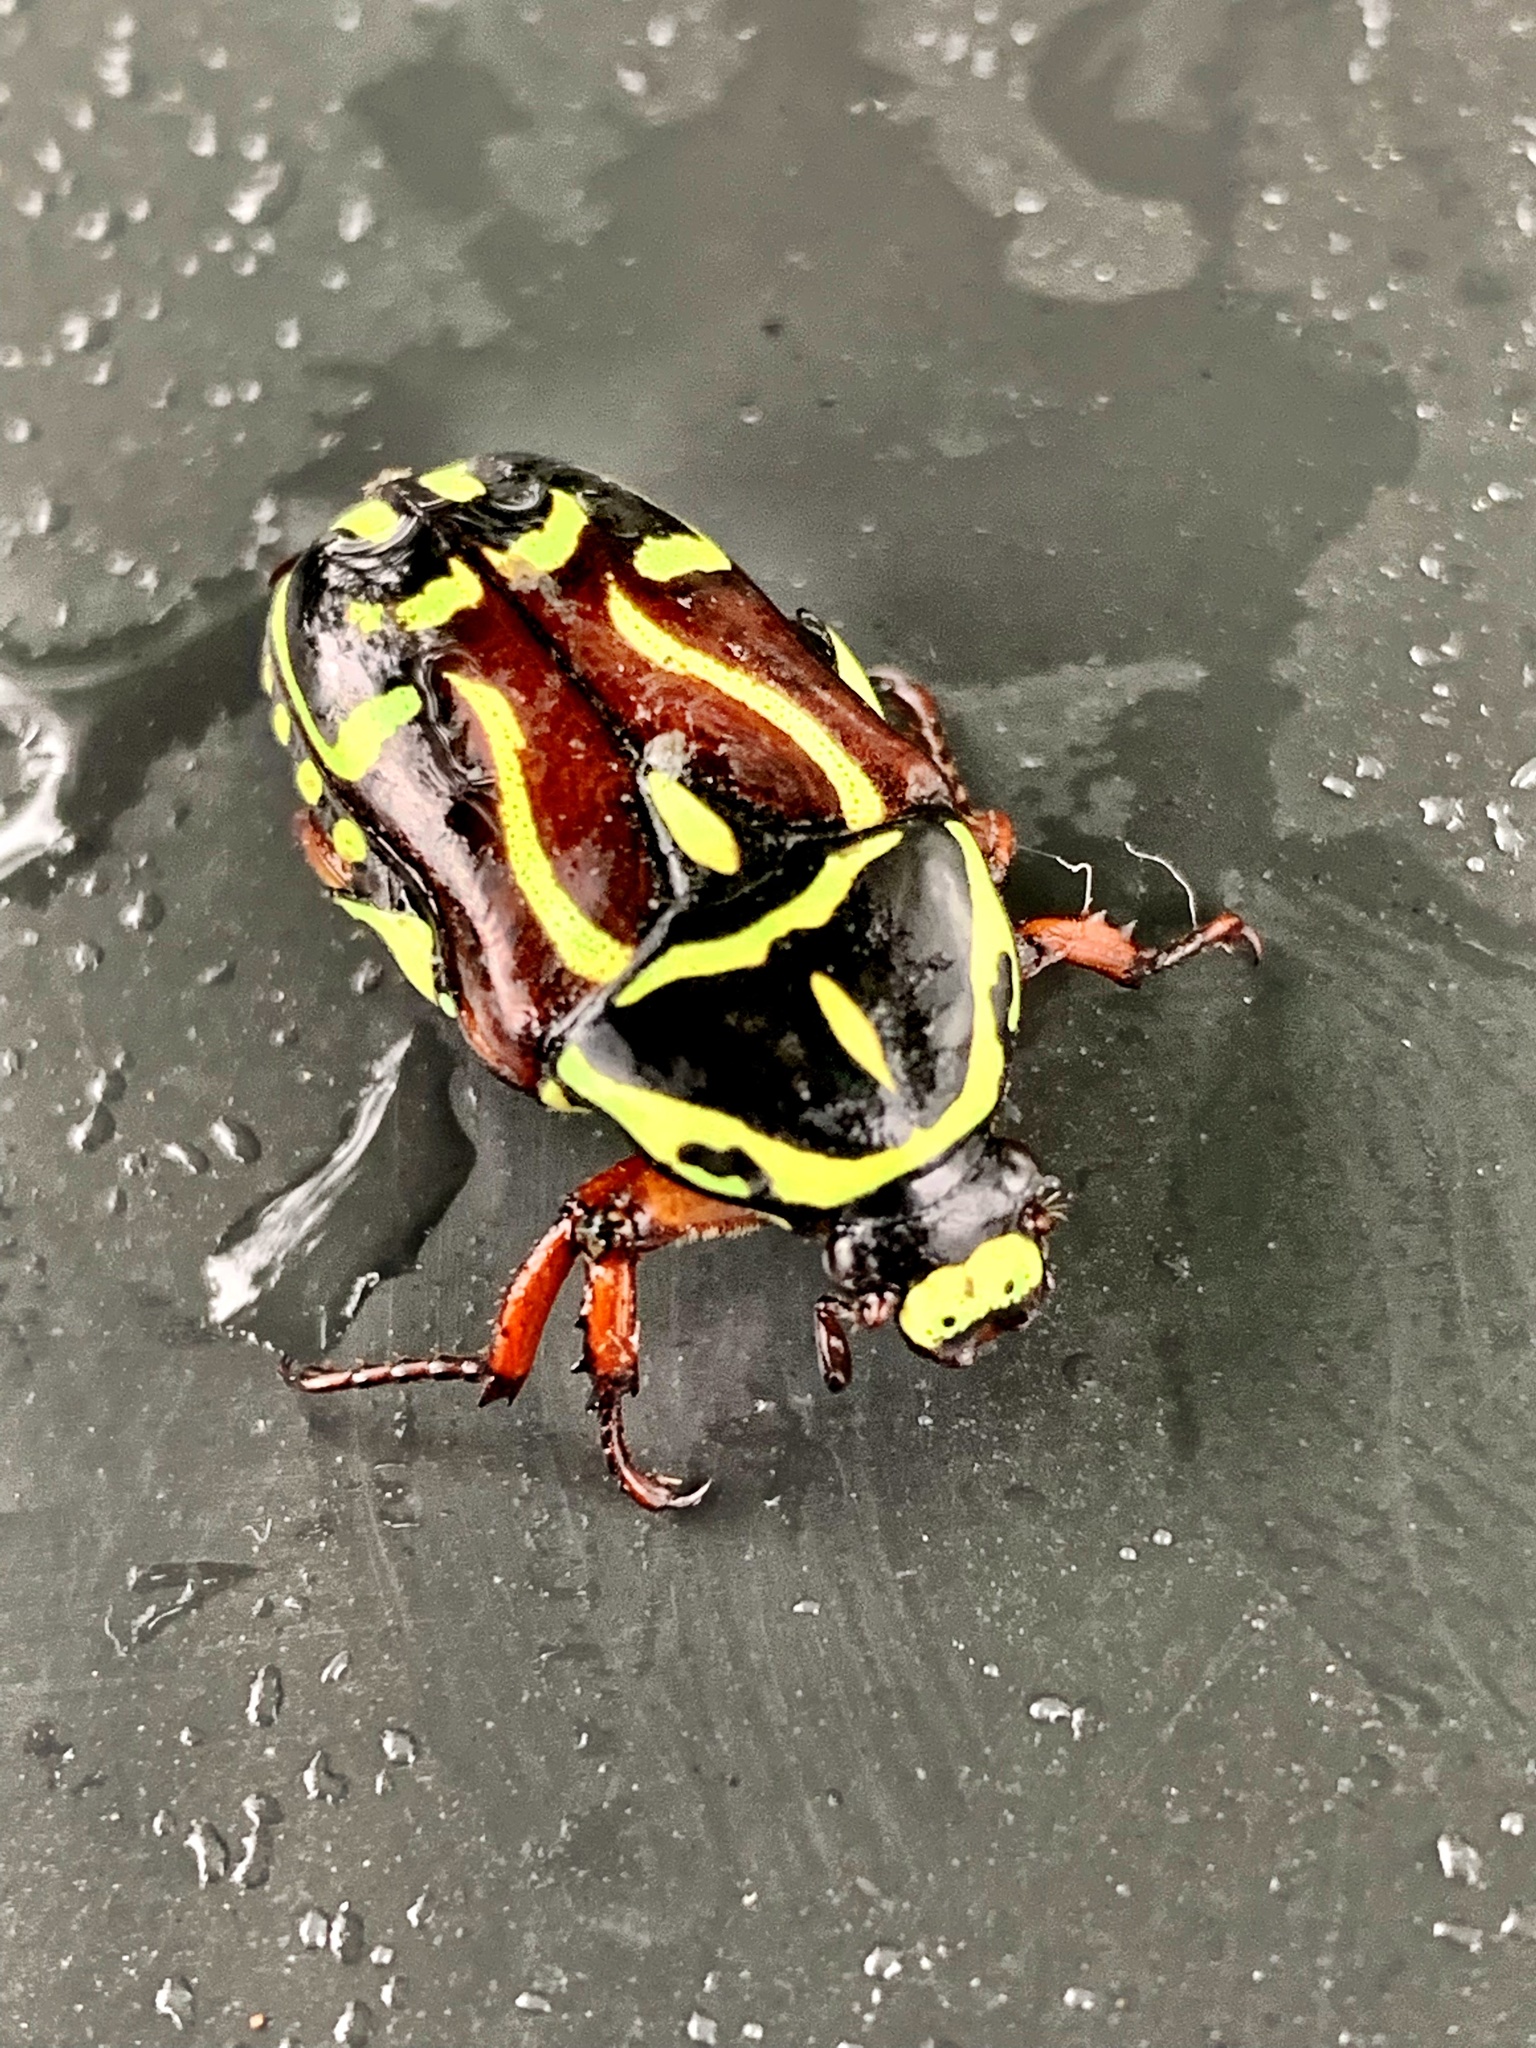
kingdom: Animalia
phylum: Arthropoda
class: Insecta
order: Coleoptera
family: Scarabaeidae
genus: Eupoecila
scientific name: Eupoecila australasiae
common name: Fiddler beetle
